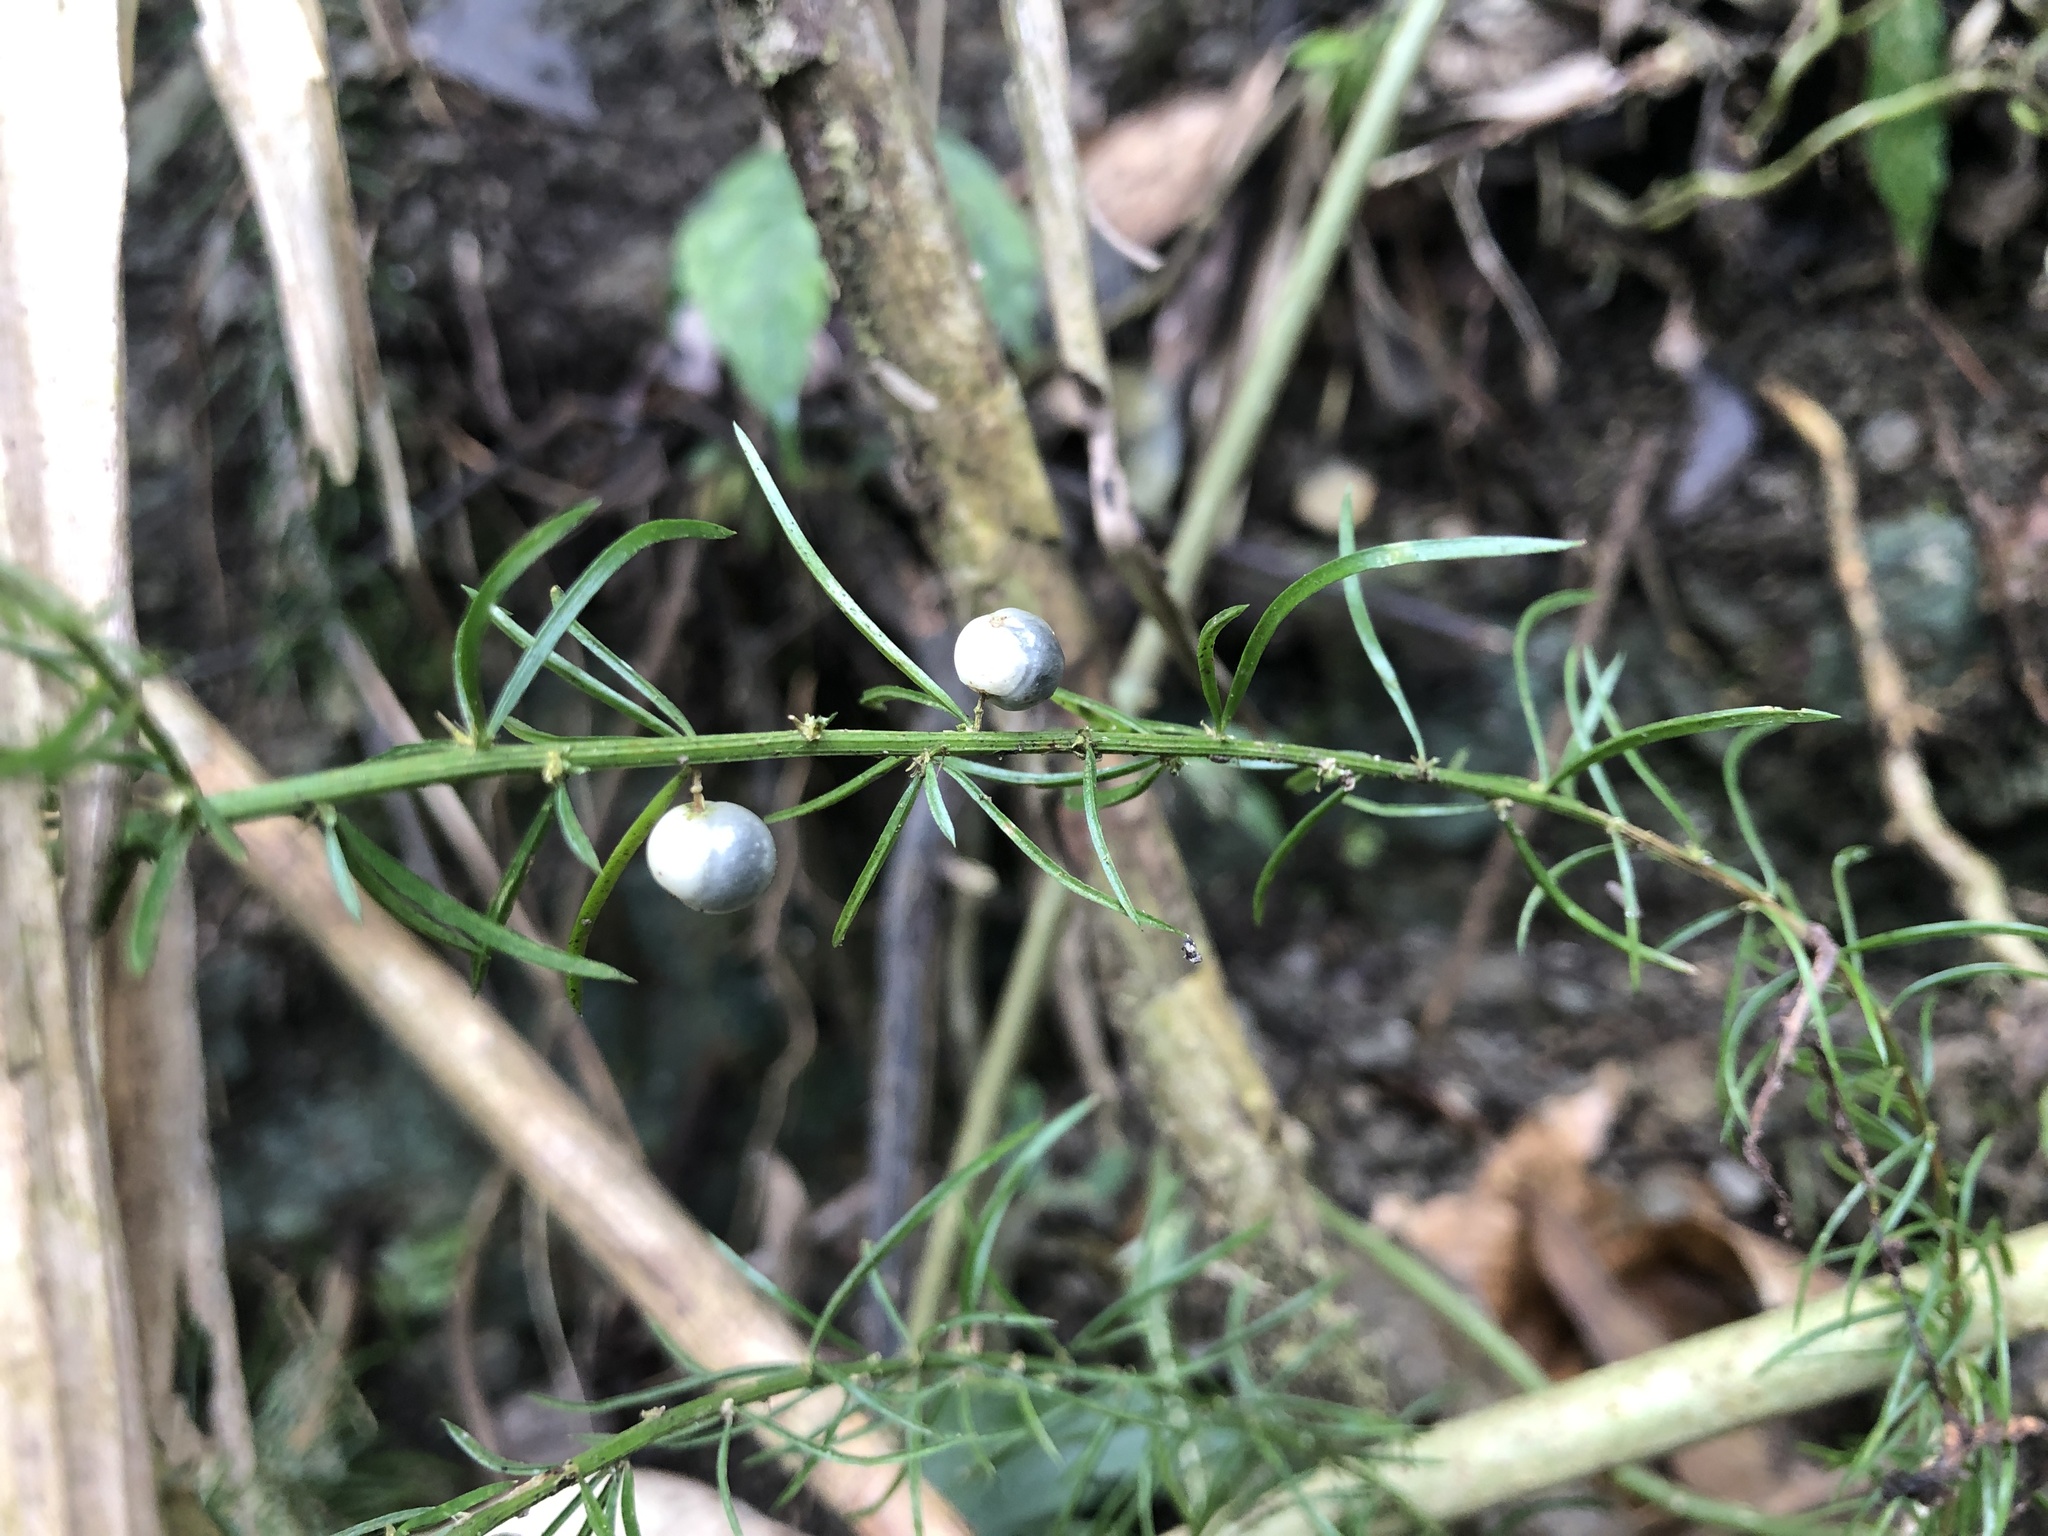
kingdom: Plantae
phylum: Tracheophyta
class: Liliopsida
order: Asparagales
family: Asparagaceae
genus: Asparagus
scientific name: Asparagus cochinchinensis
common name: Chinese asparagus
